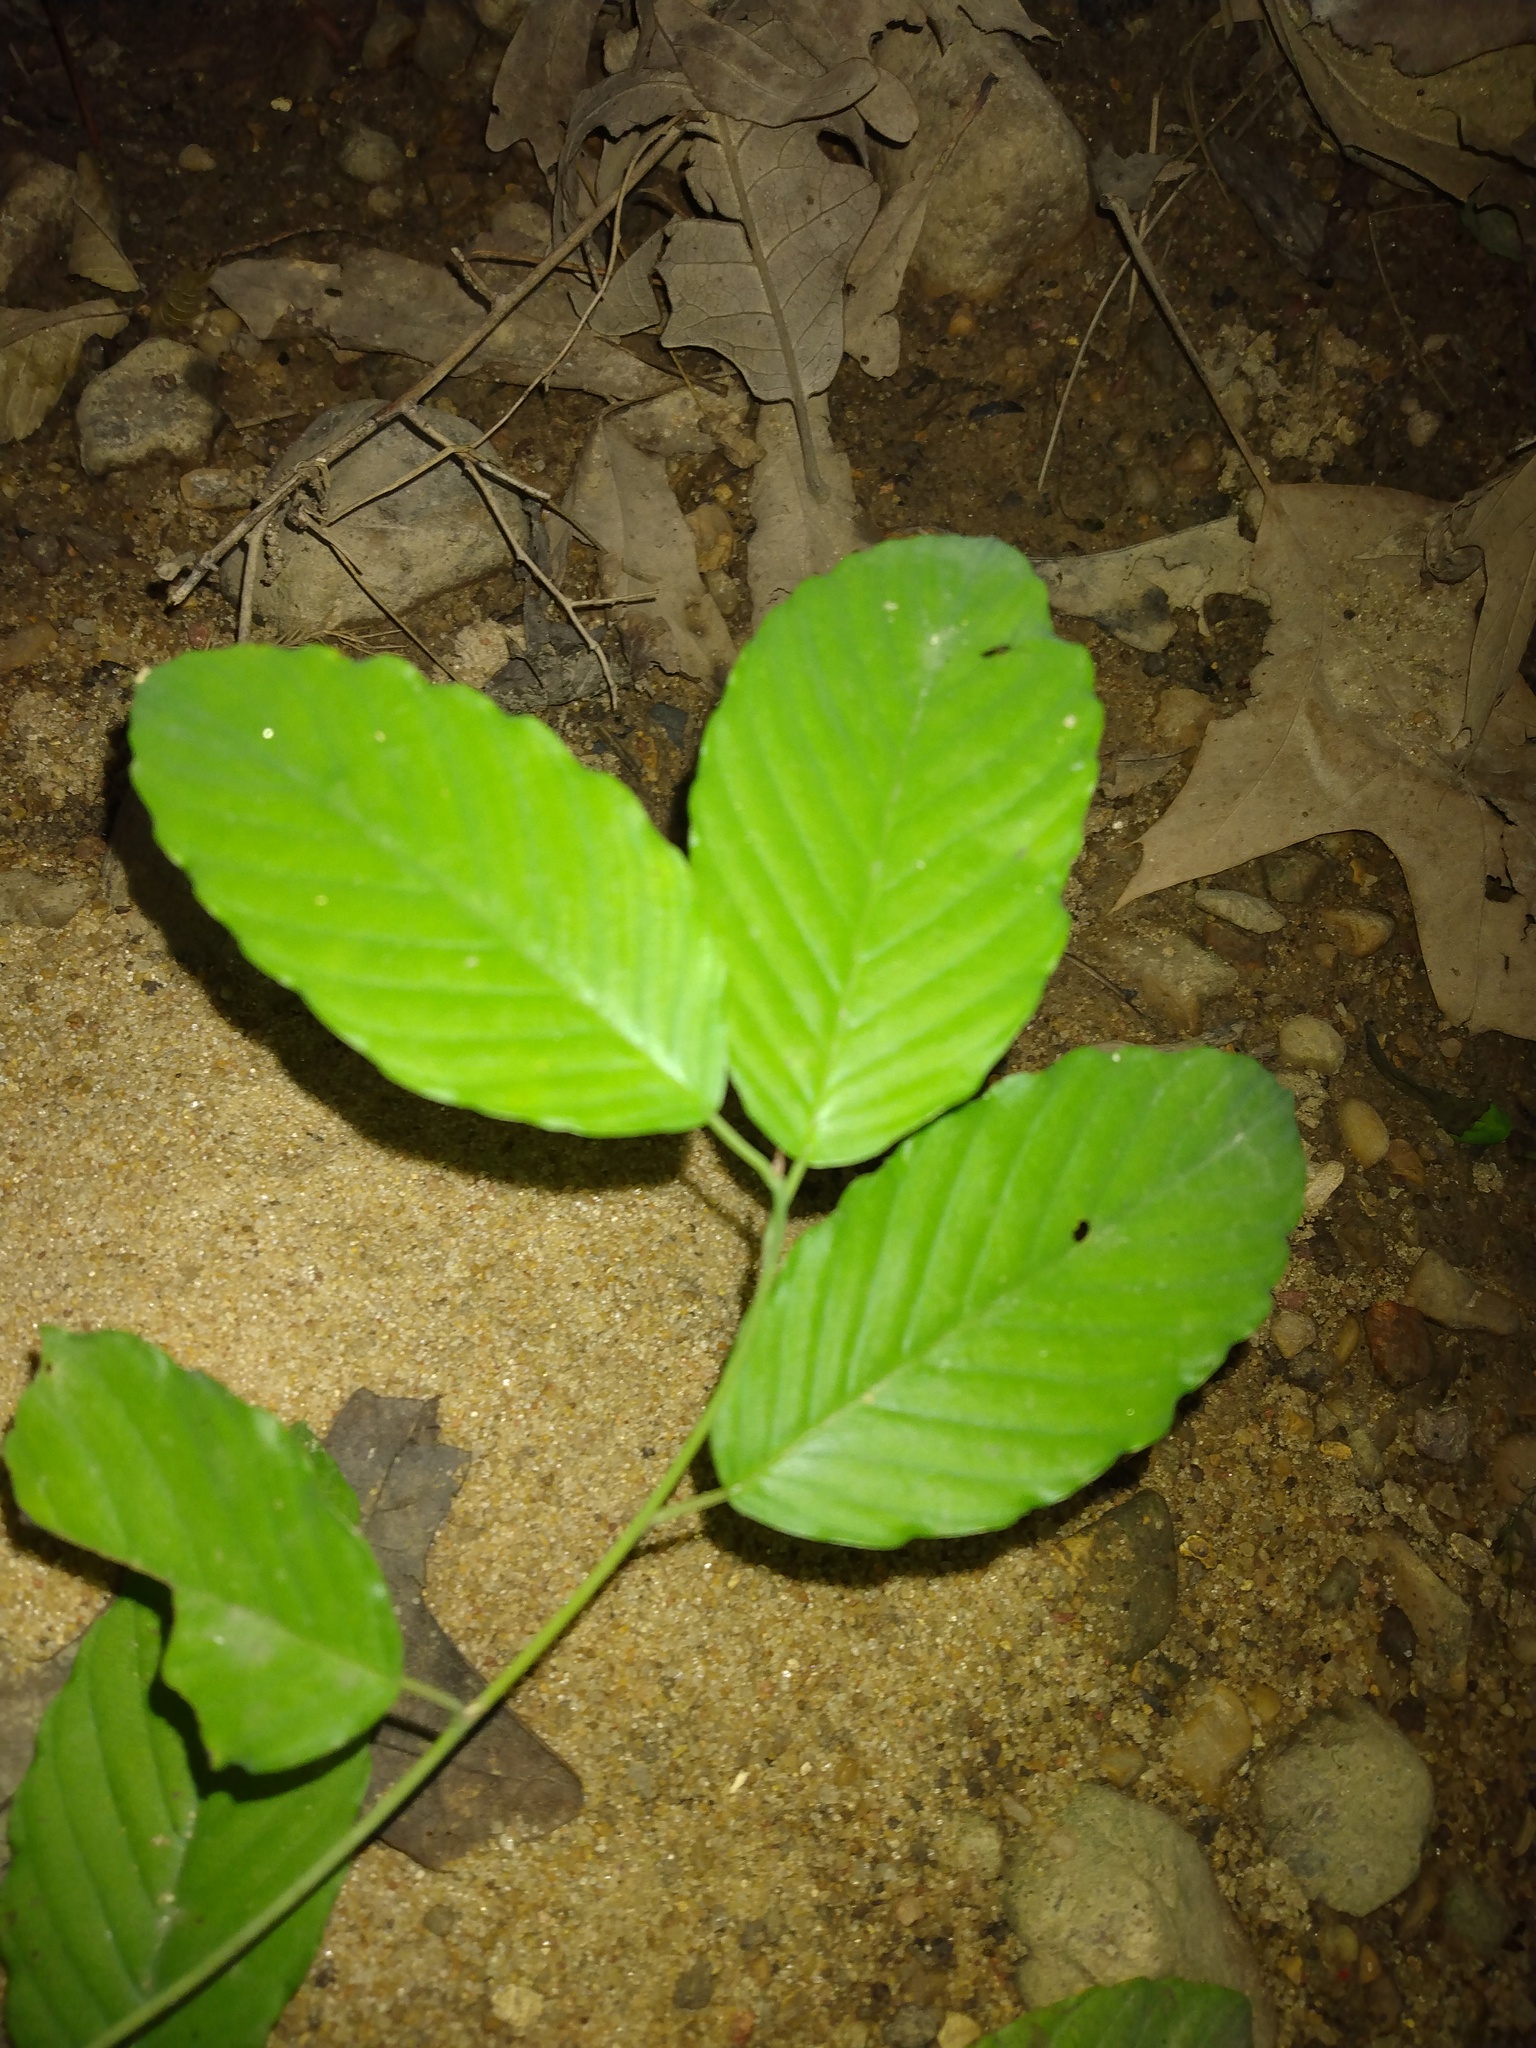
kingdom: Plantae
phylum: Tracheophyta
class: Magnoliopsida
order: Rosales
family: Rhamnaceae
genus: Berchemia
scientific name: Berchemia scandens
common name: Supplejack
